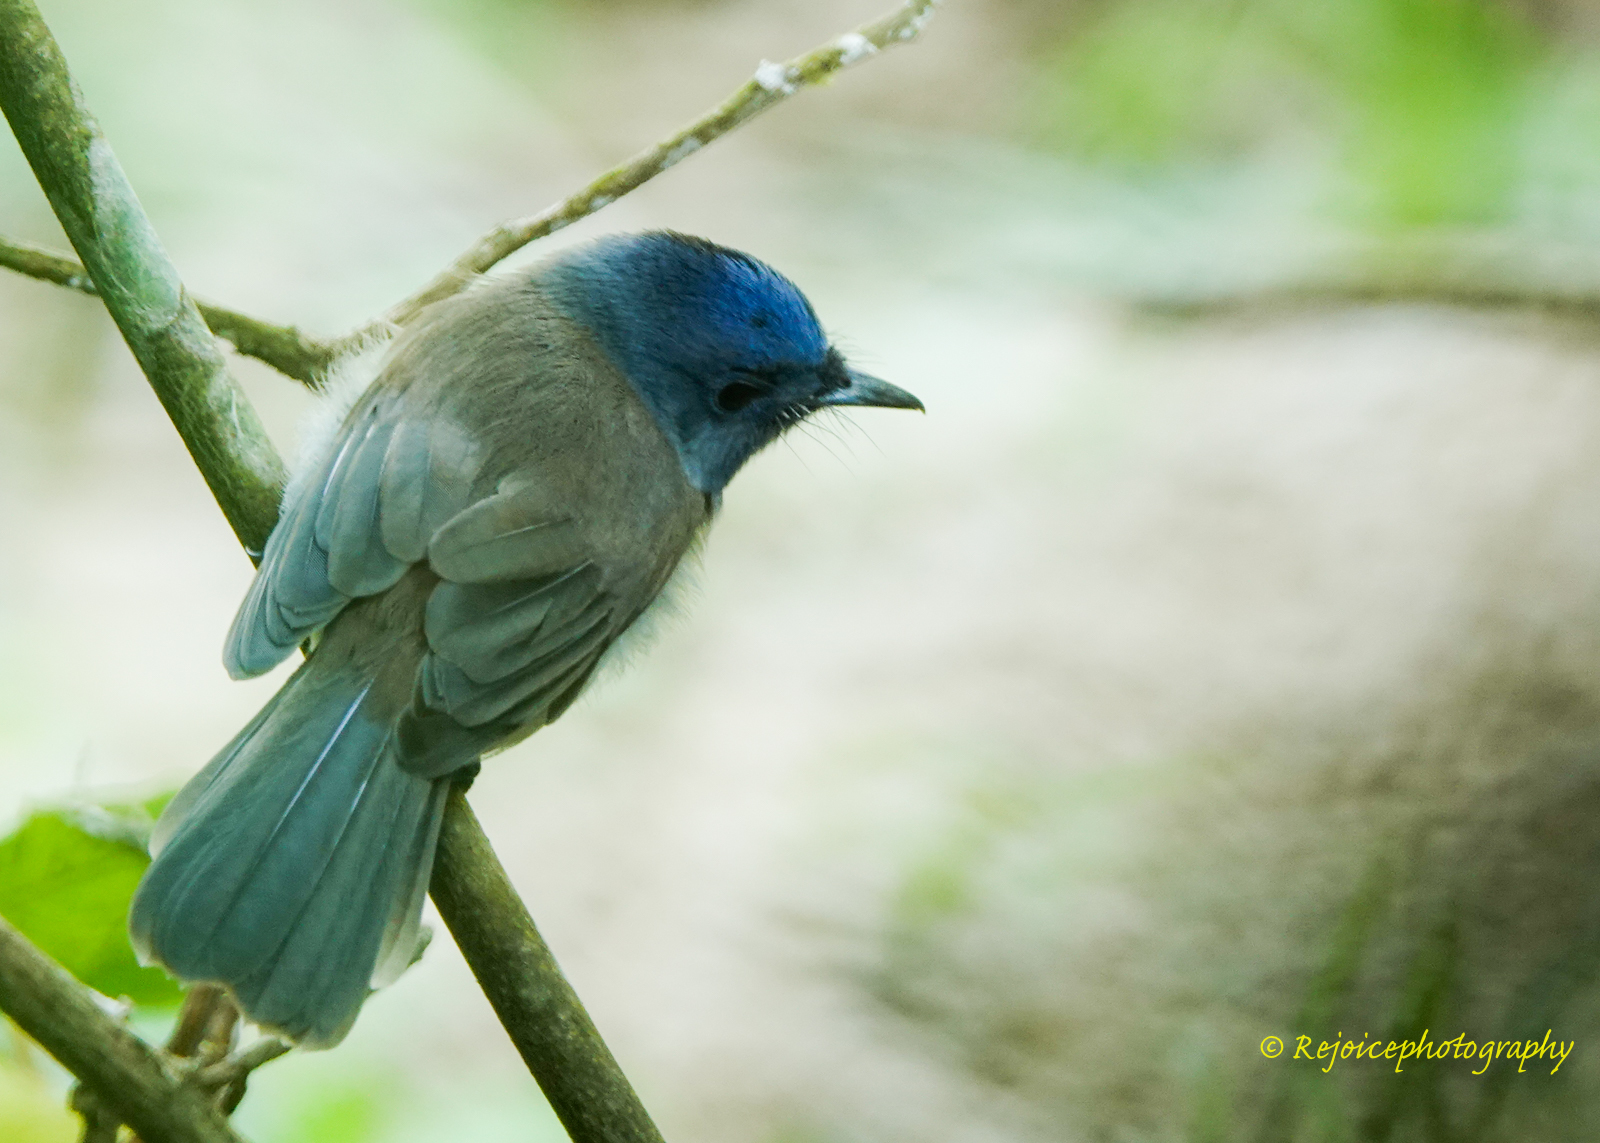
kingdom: Animalia
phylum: Chordata
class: Aves
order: Passeriformes
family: Monarchidae
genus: Hypothymis
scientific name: Hypothymis azurea
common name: Black-naped monarch
